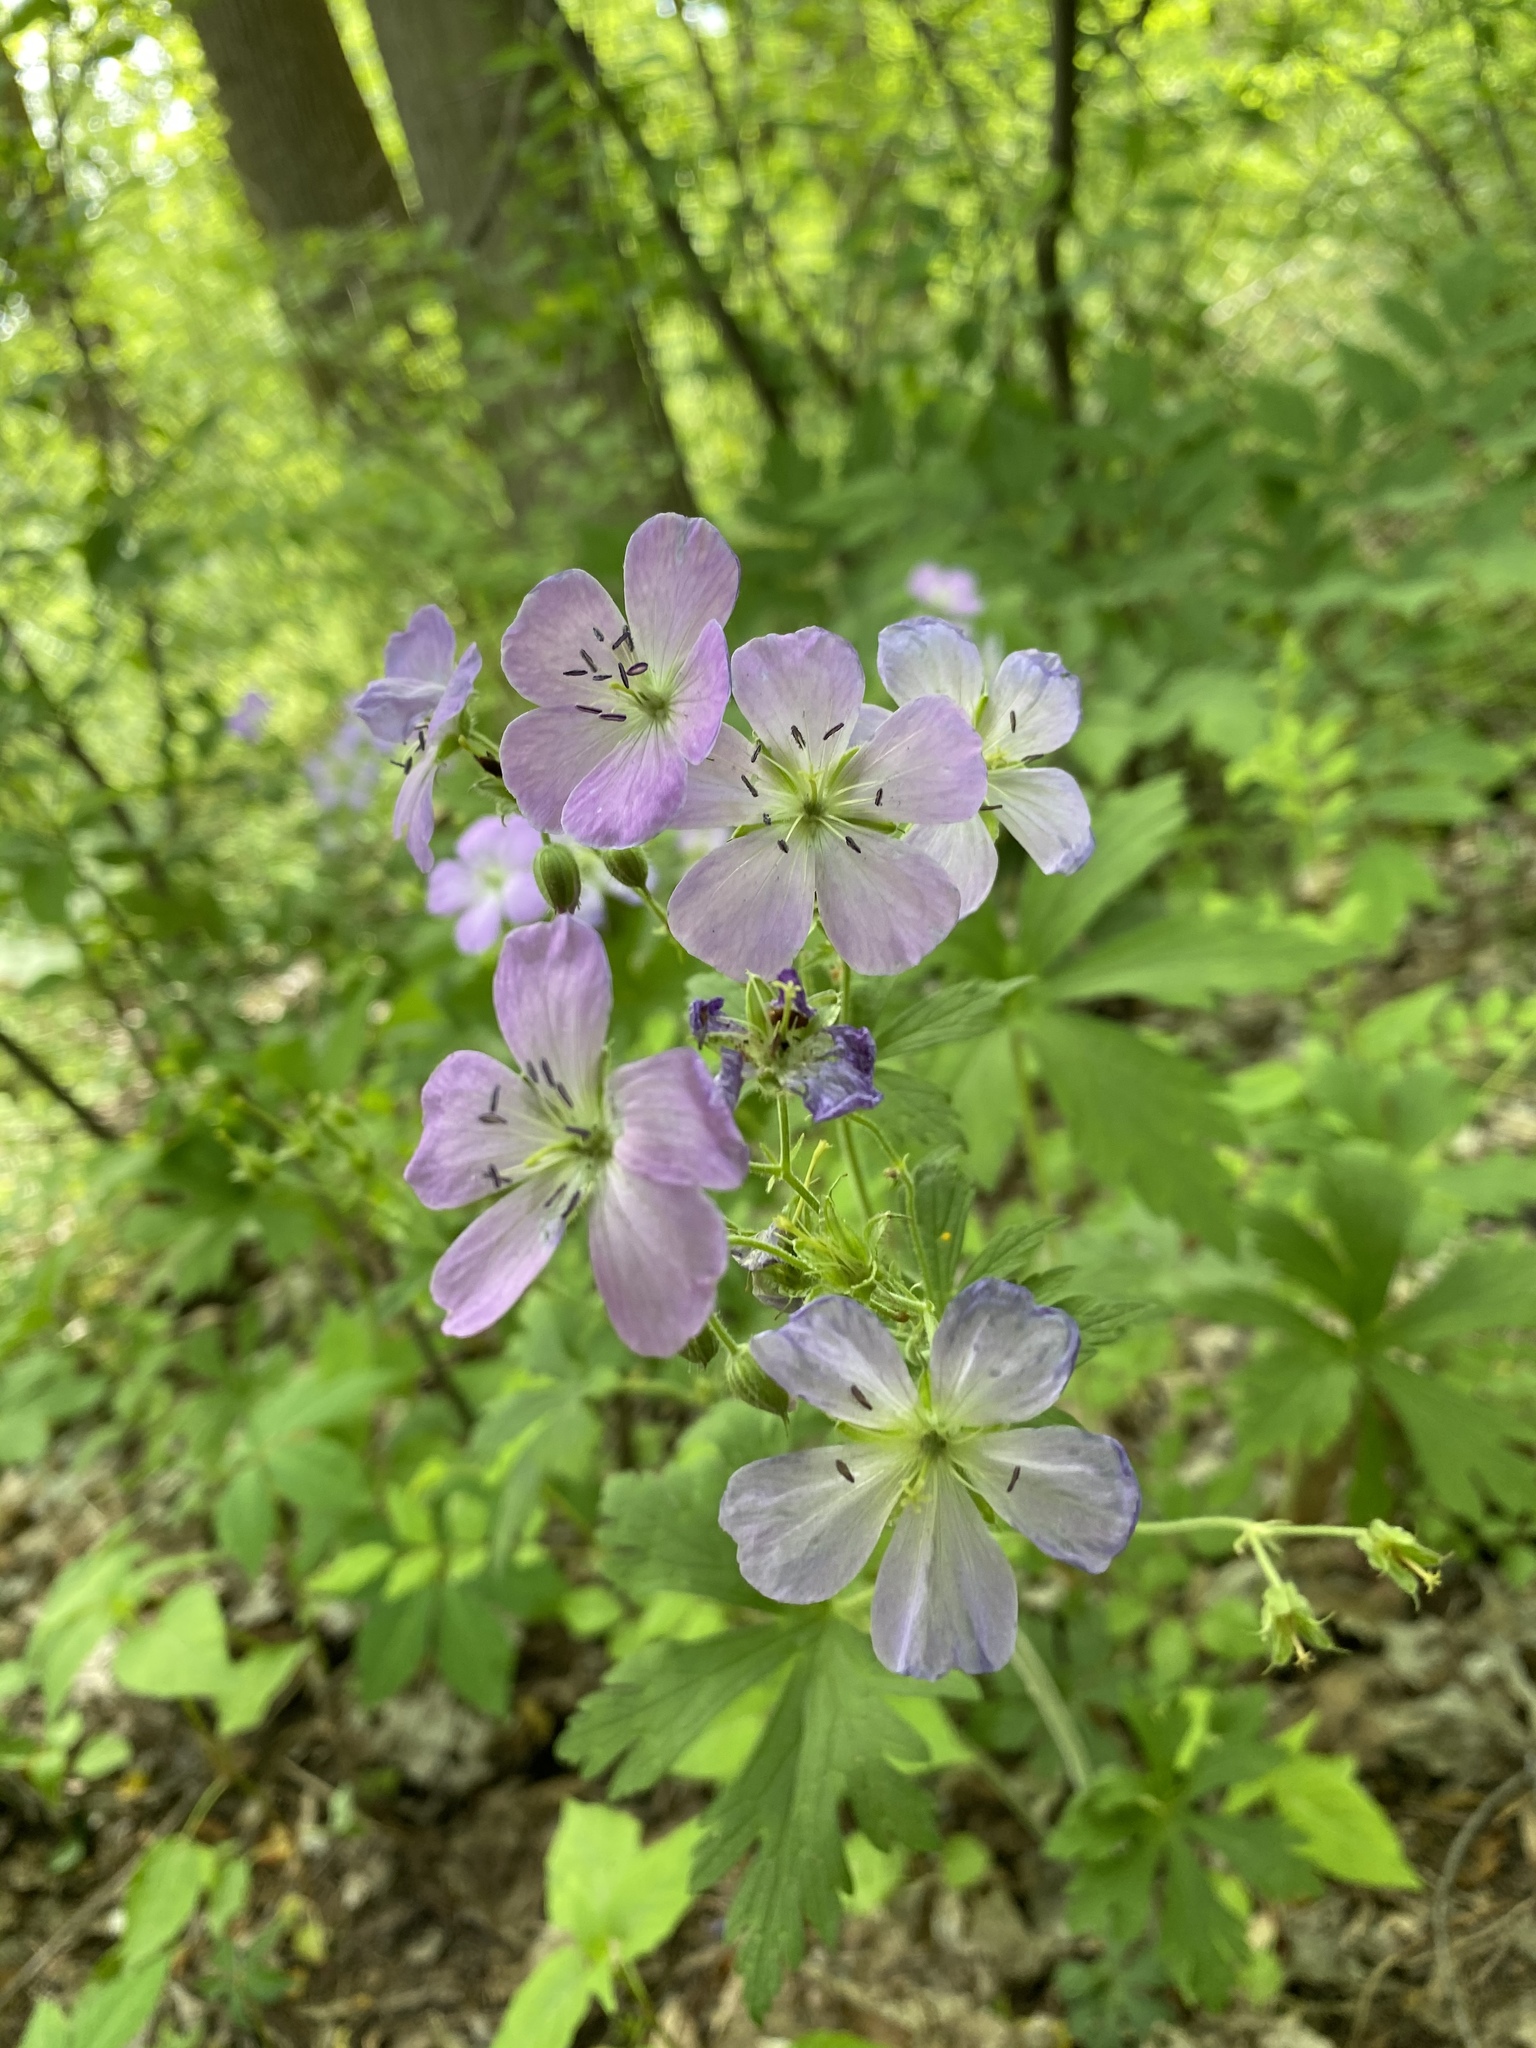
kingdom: Plantae
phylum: Tracheophyta
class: Magnoliopsida
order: Geraniales
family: Geraniaceae
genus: Geranium
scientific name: Geranium maculatum
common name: Spotted geranium
